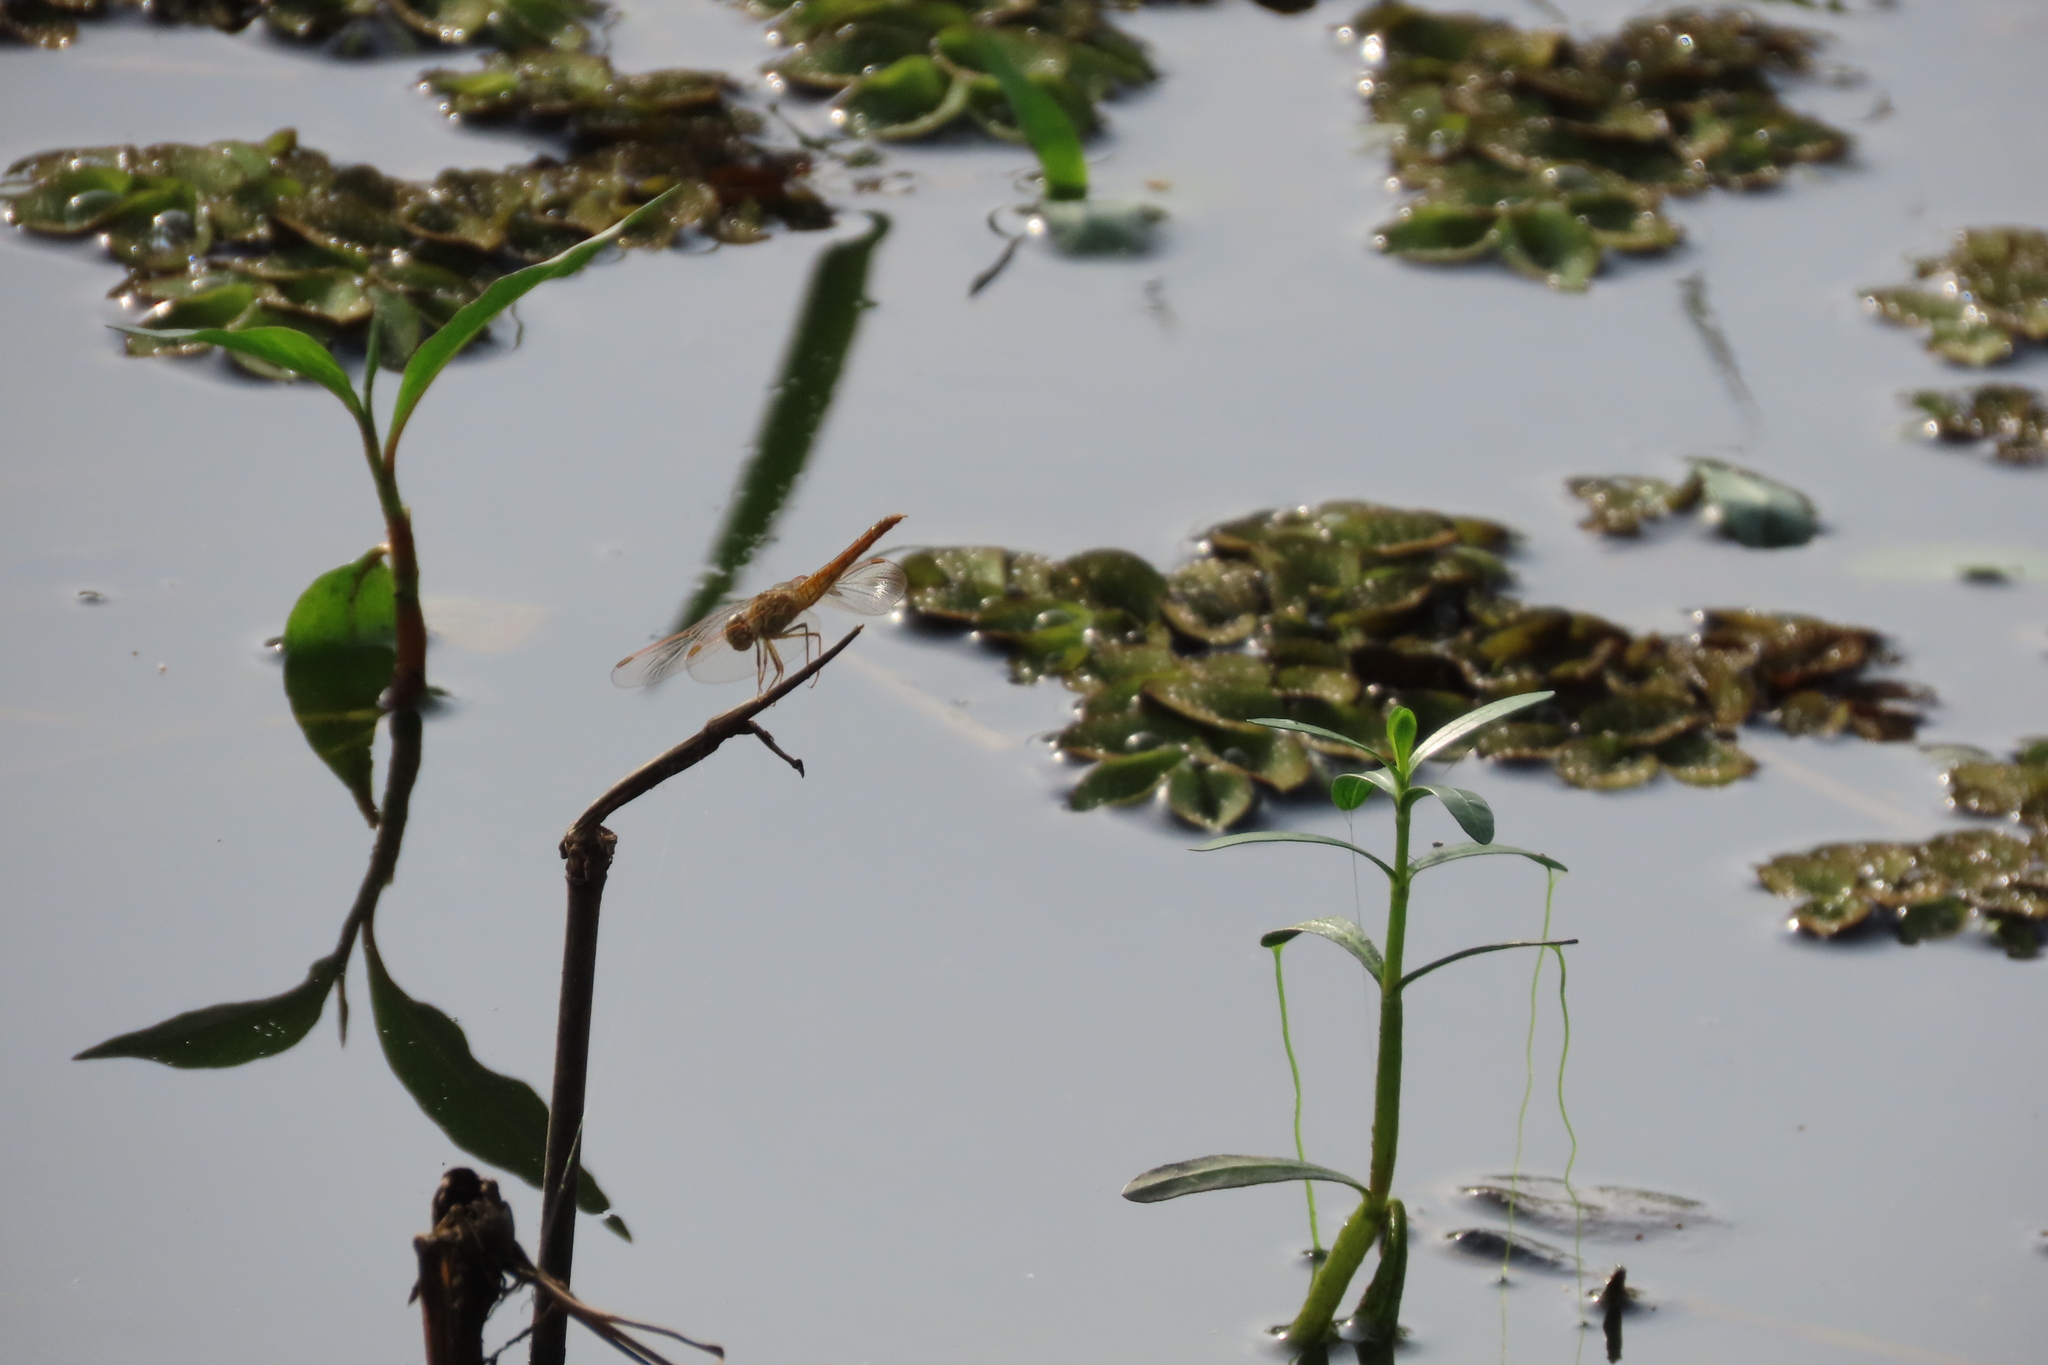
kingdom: Animalia
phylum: Arthropoda
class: Insecta
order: Odonata
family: Libellulidae
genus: Brachythemis
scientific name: Brachythemis contaminata
